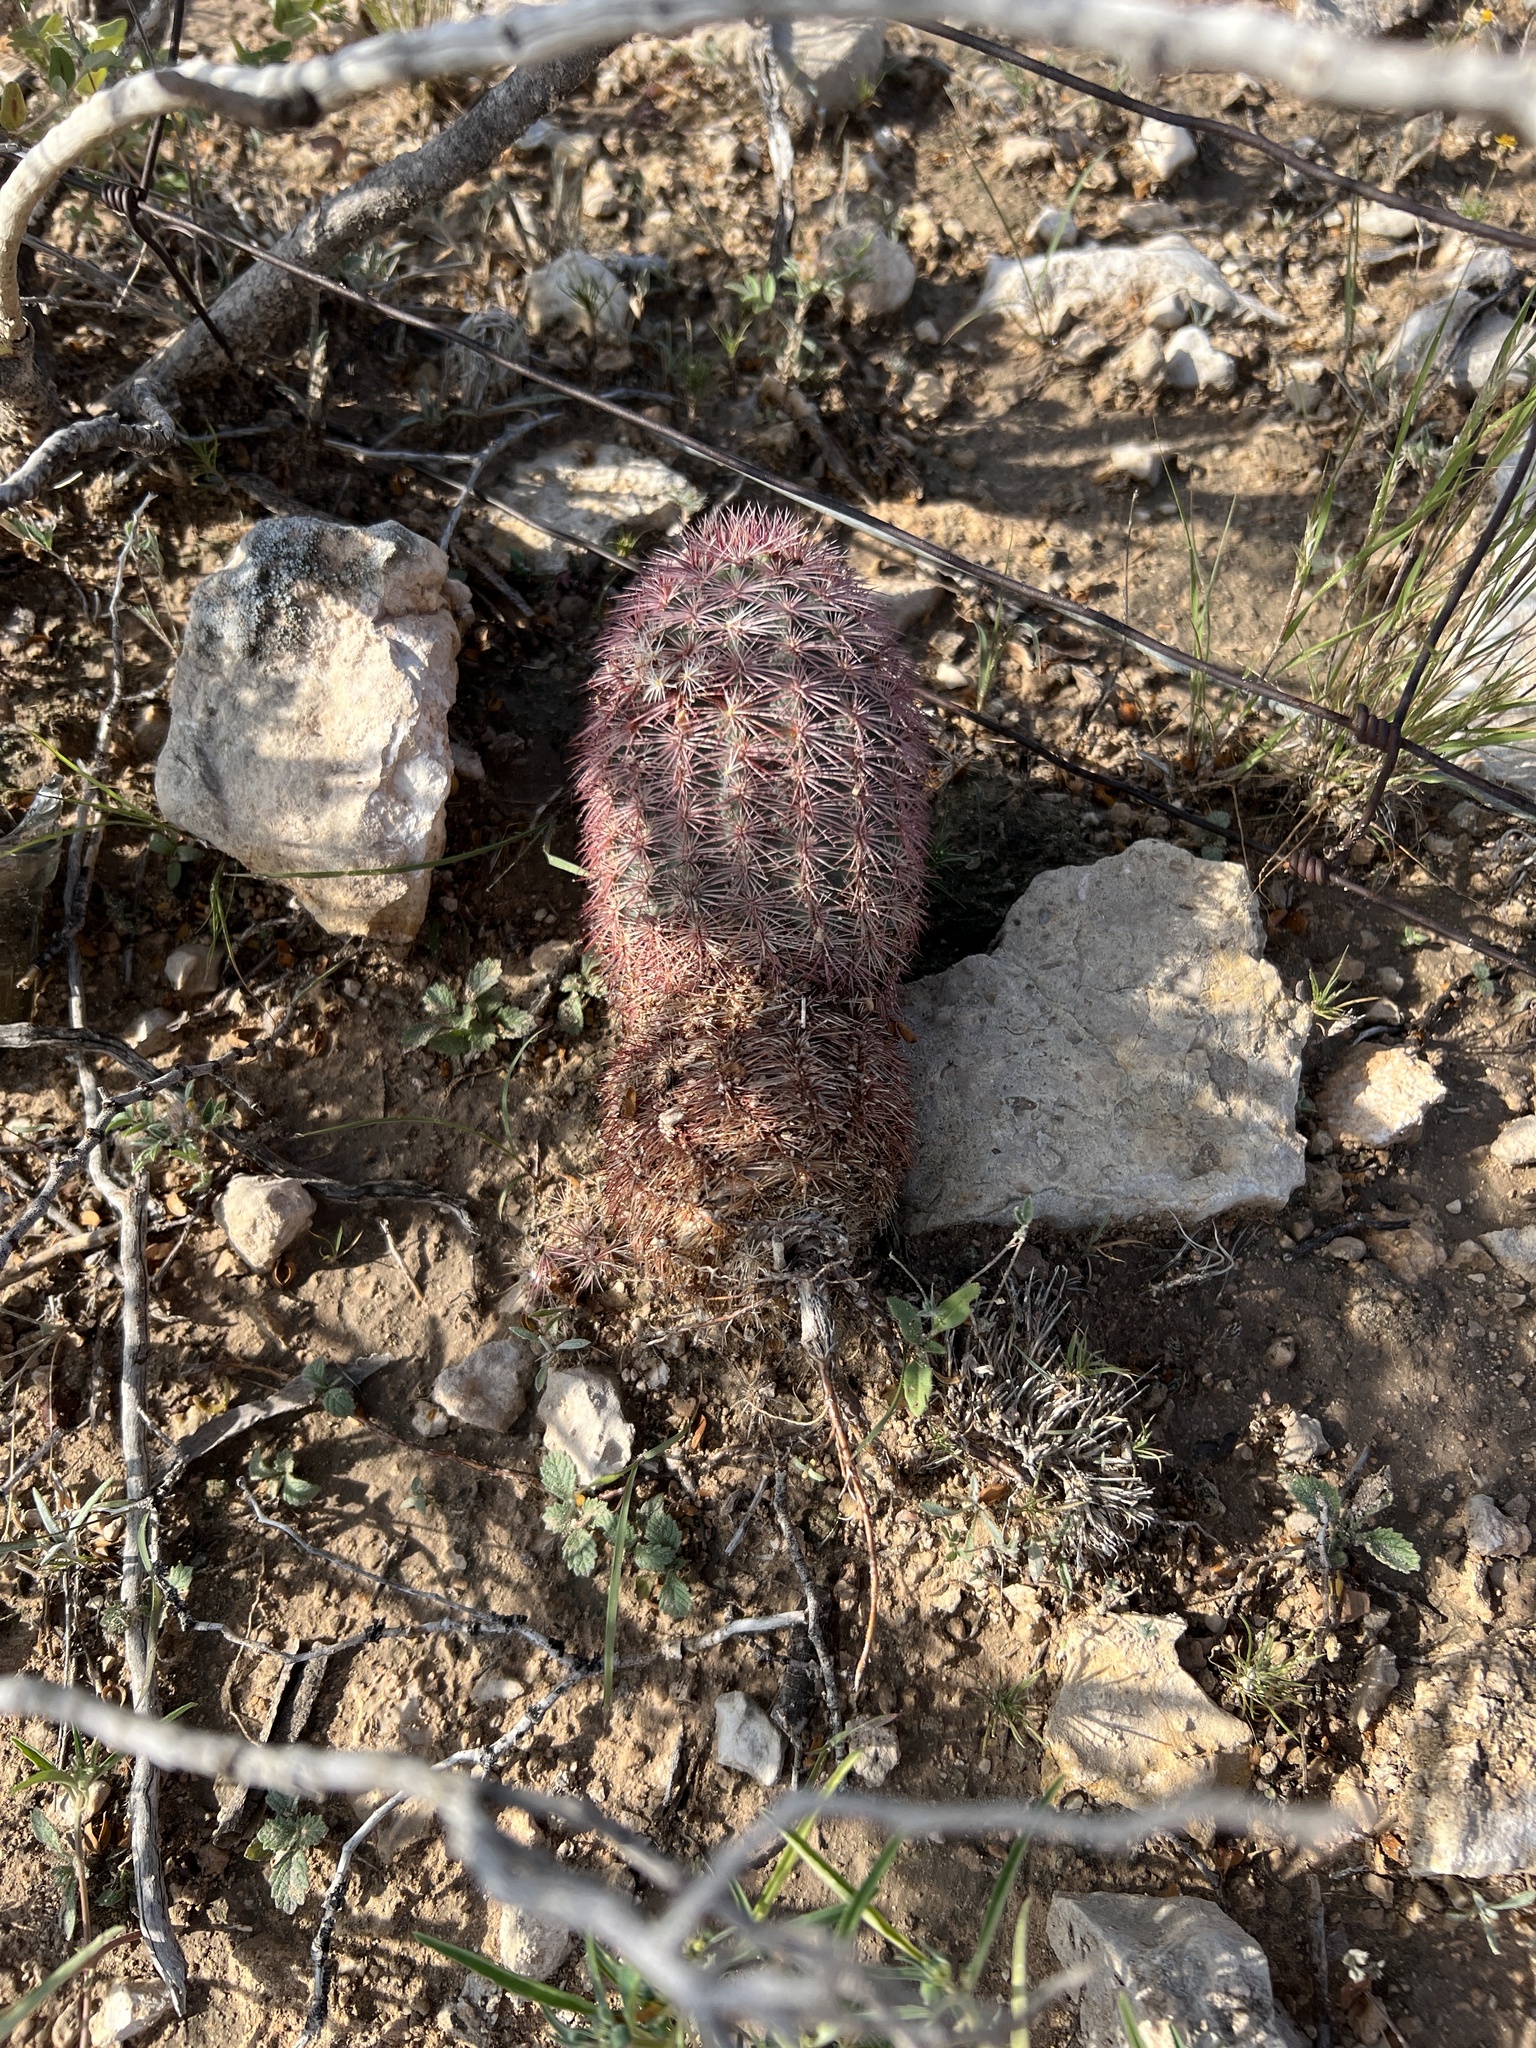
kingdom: Plantae
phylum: Tracheophyta
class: Magnoliopsida
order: Caryophyllales
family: Cactaceae
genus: Echinocereus
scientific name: Echinocereus dasyacanthus
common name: Spiny hedgehog cactus
